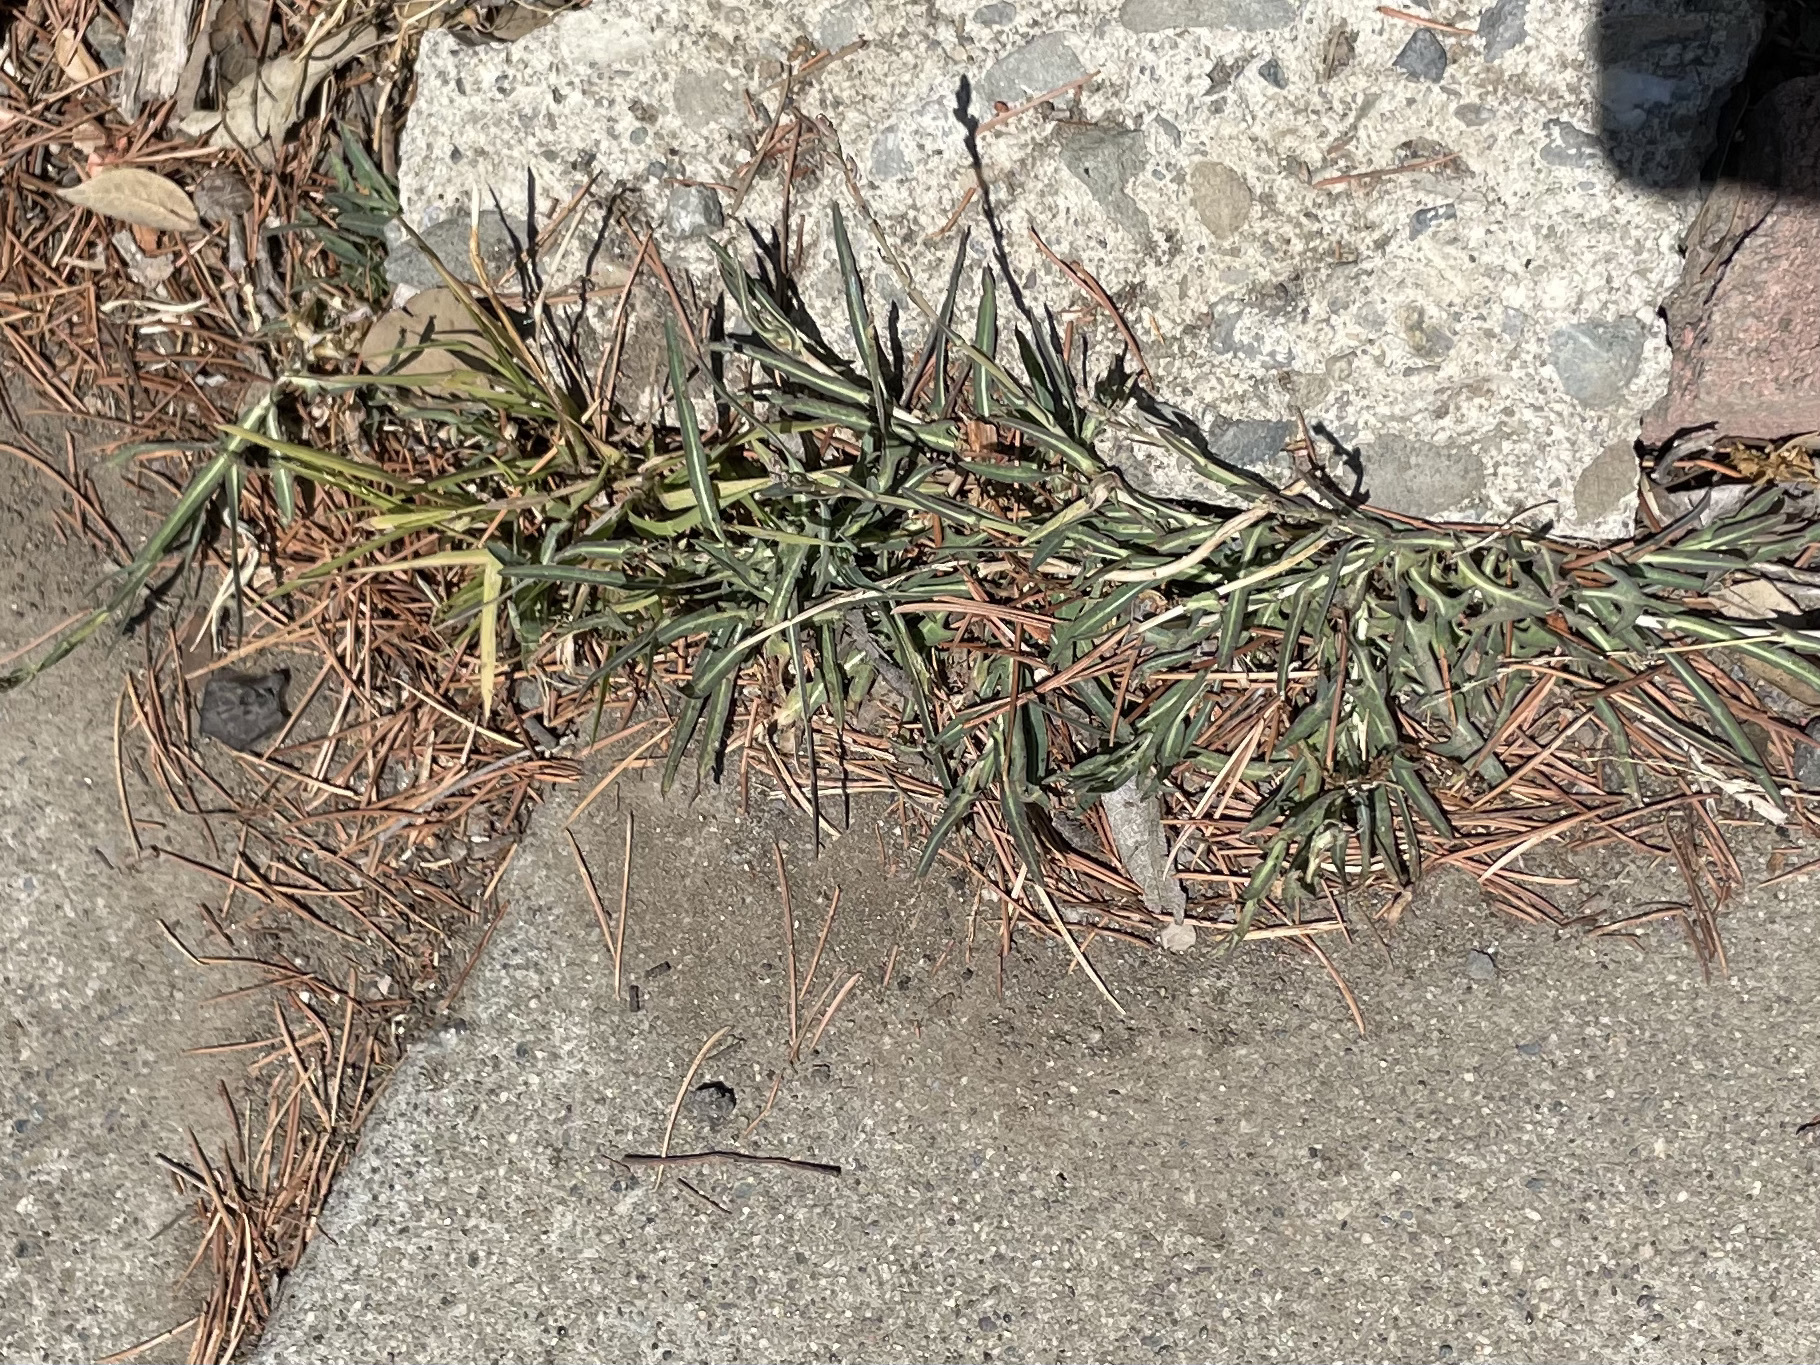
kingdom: Plantae
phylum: Tracheophyta
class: Magnoliopsida
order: Asterales
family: Asteraceae
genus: Lactuca
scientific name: Lactuca saligna
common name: Wild lettuce
